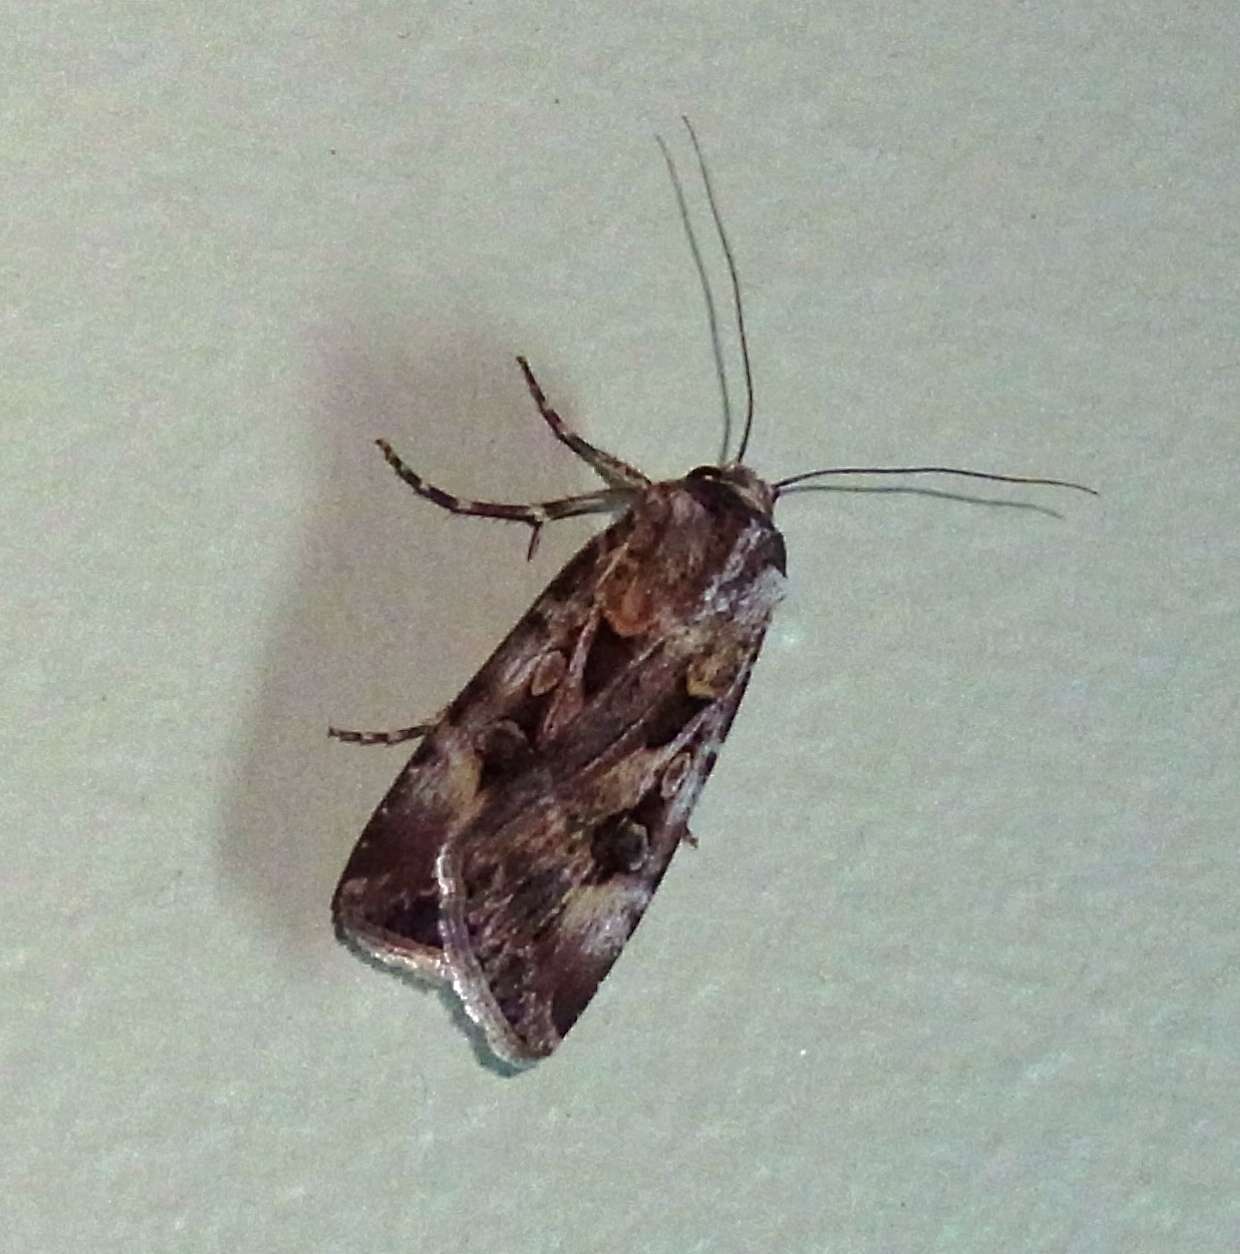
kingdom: Animalia
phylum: Arthropoda
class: Insecta
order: Lepidoptera
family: Noctuidae
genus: Agrotis
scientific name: Agrotis munda
